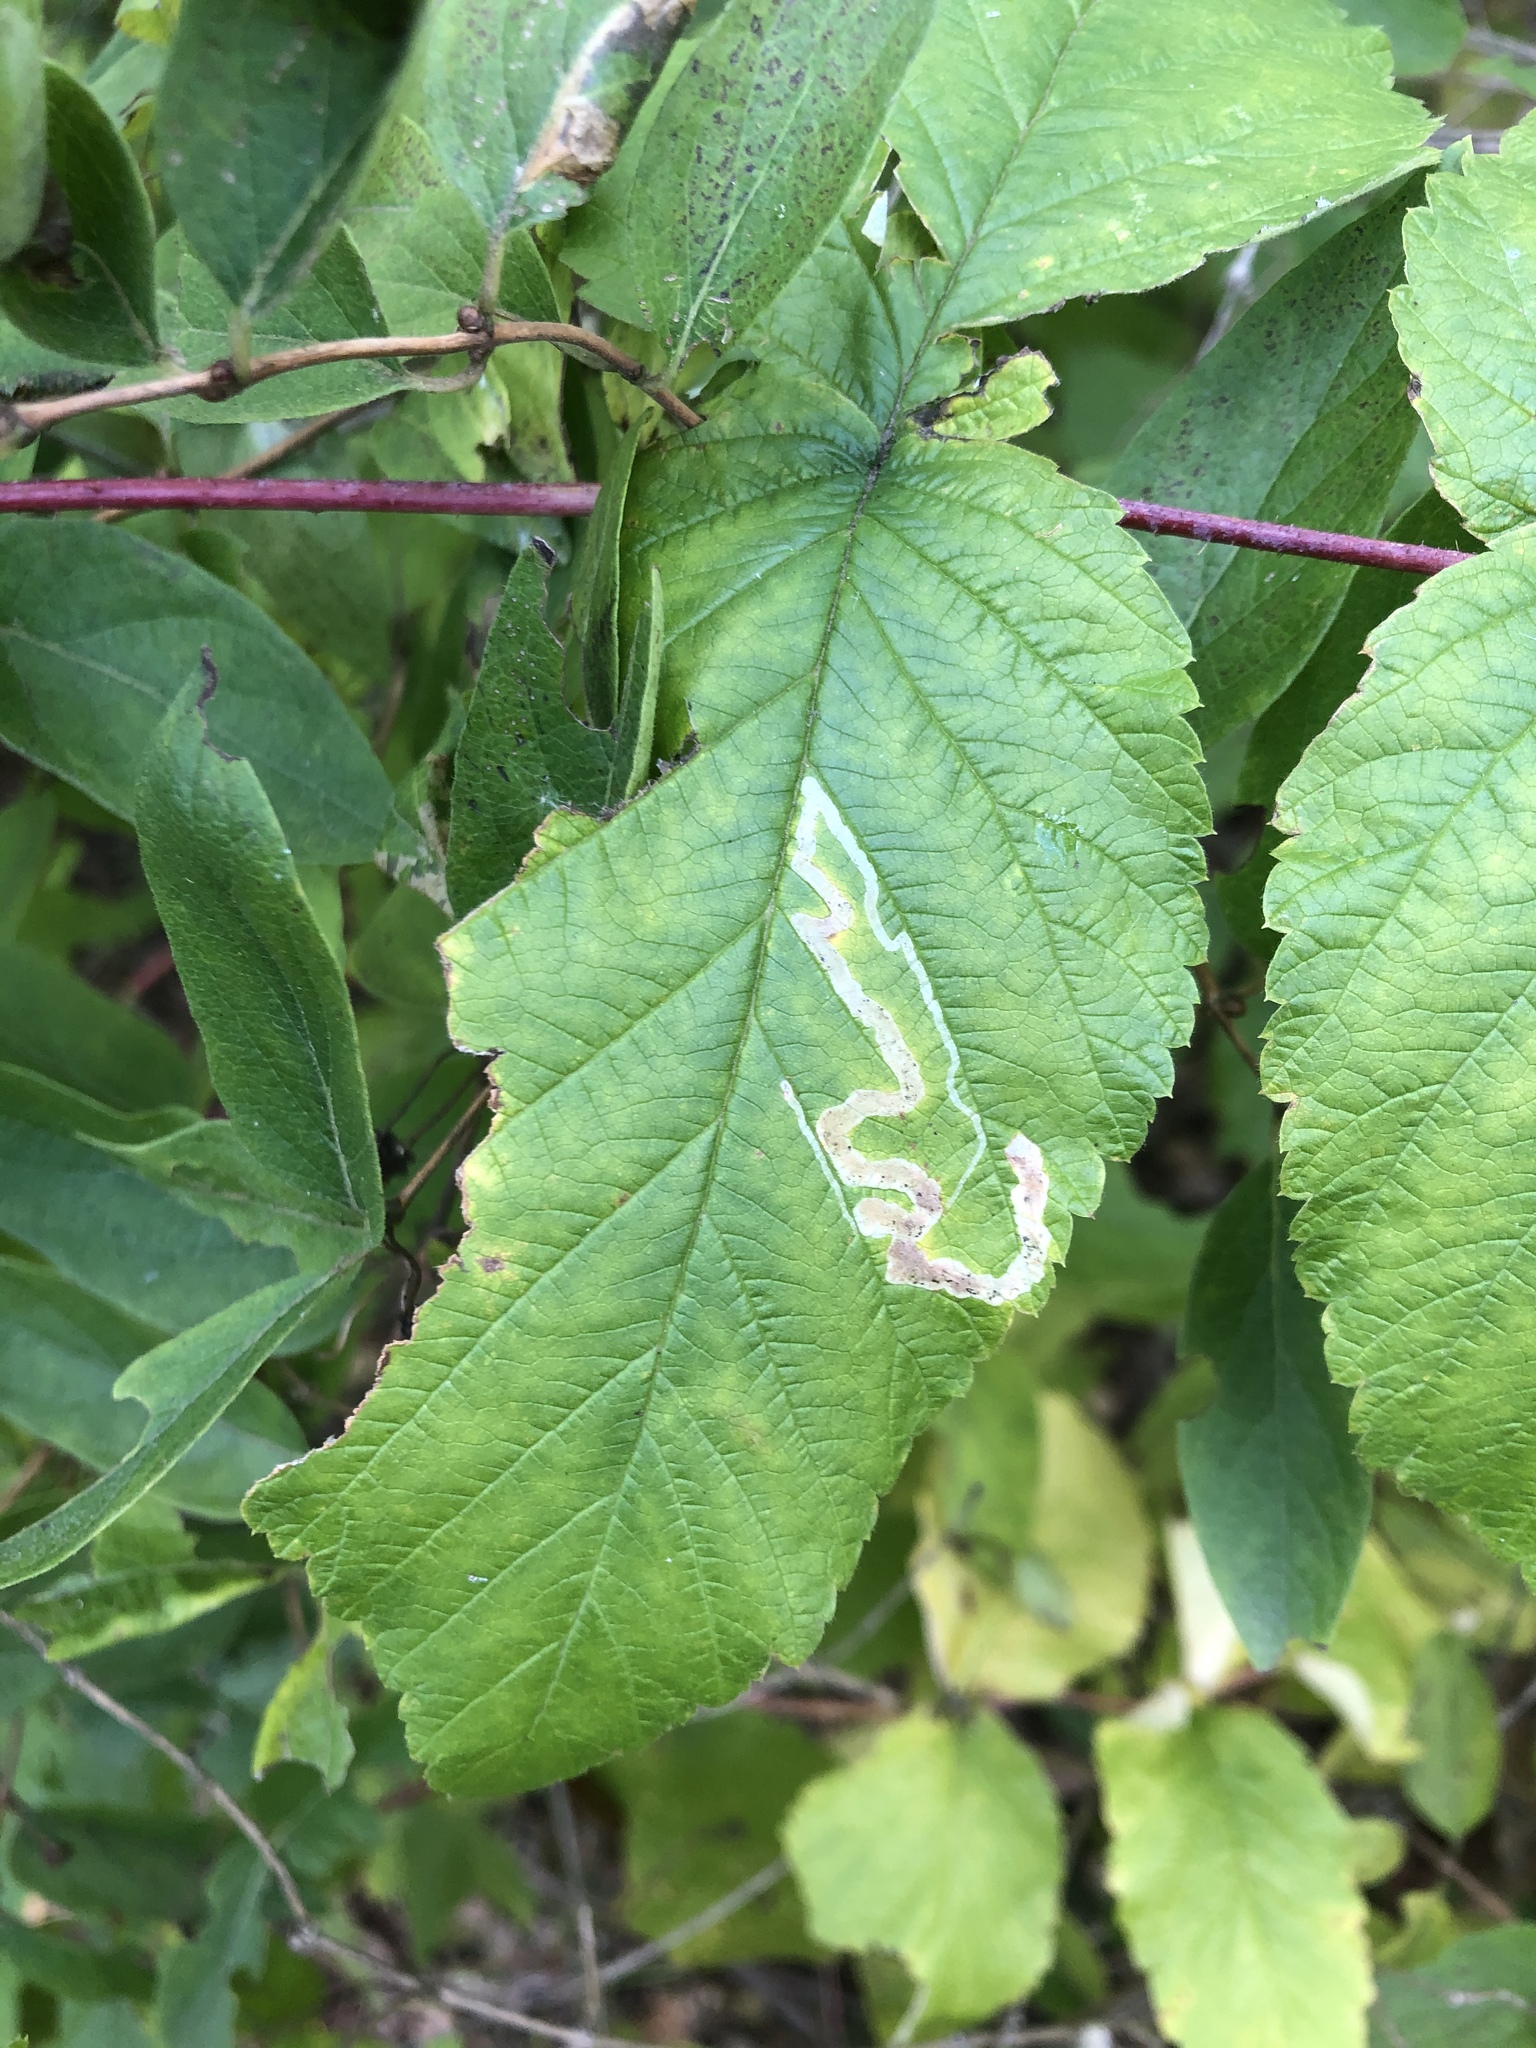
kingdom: Animalia
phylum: Arthropoda
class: Insecta
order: Diptera
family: Agromyzidae
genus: Agromyza
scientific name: Agromyza vockerothi
